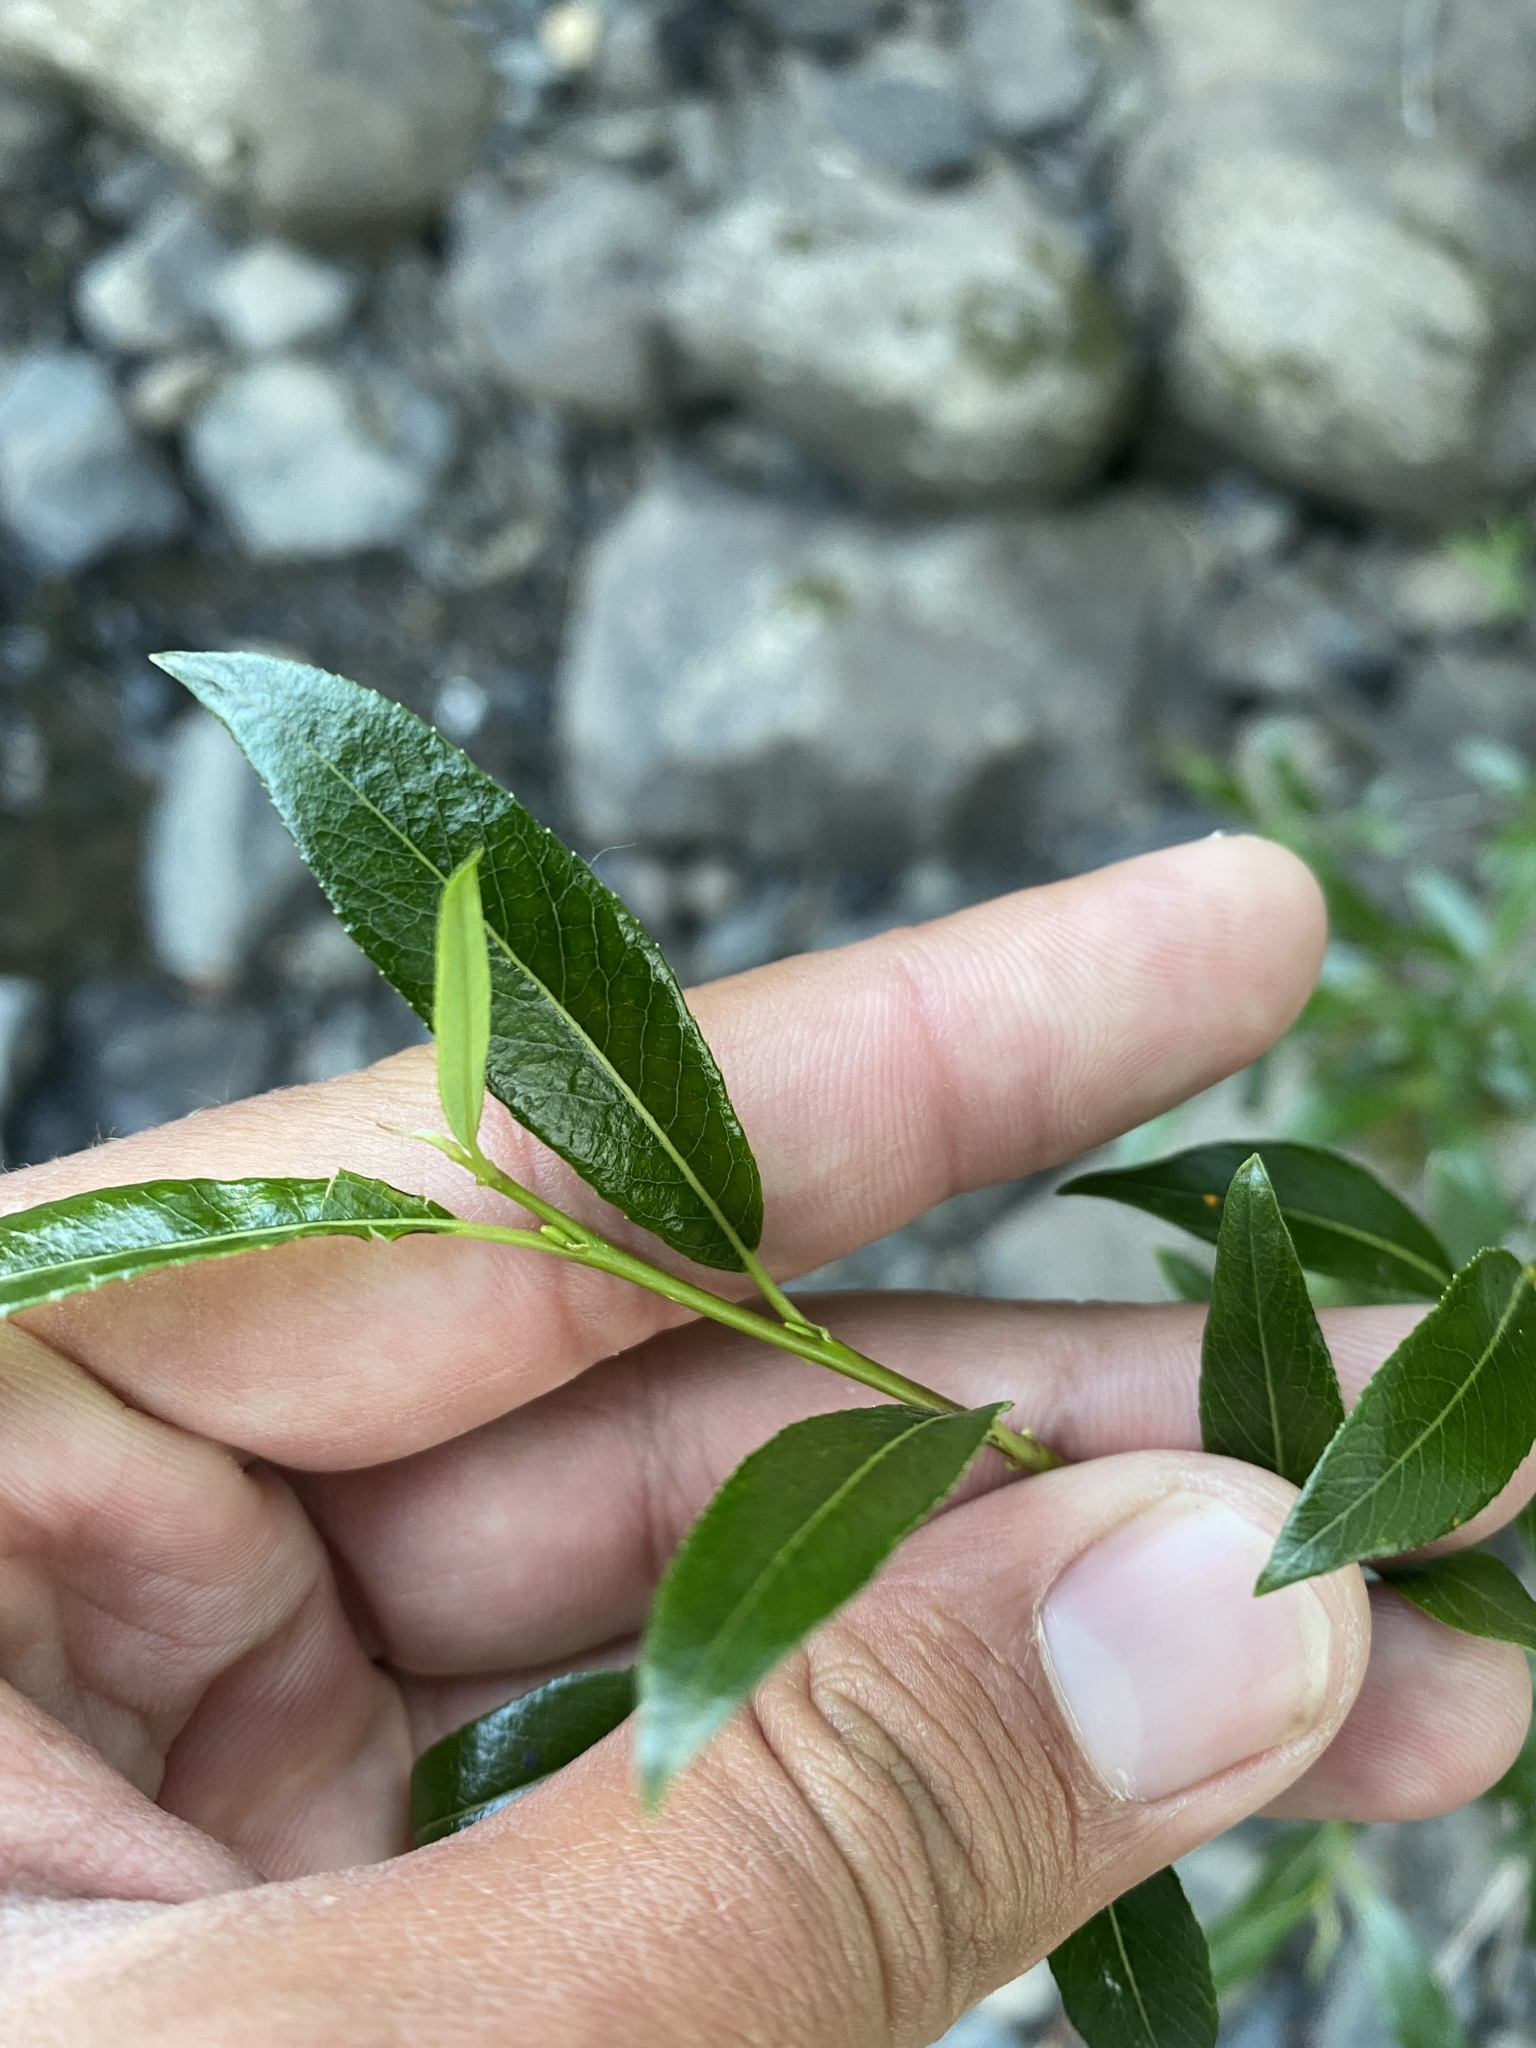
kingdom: Plantae
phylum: Tracheophyta
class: Magnoliopsida
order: Malpighiales
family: Salicaceae
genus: Salix
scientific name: Salix pulchra
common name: Diamond-leaved willow
